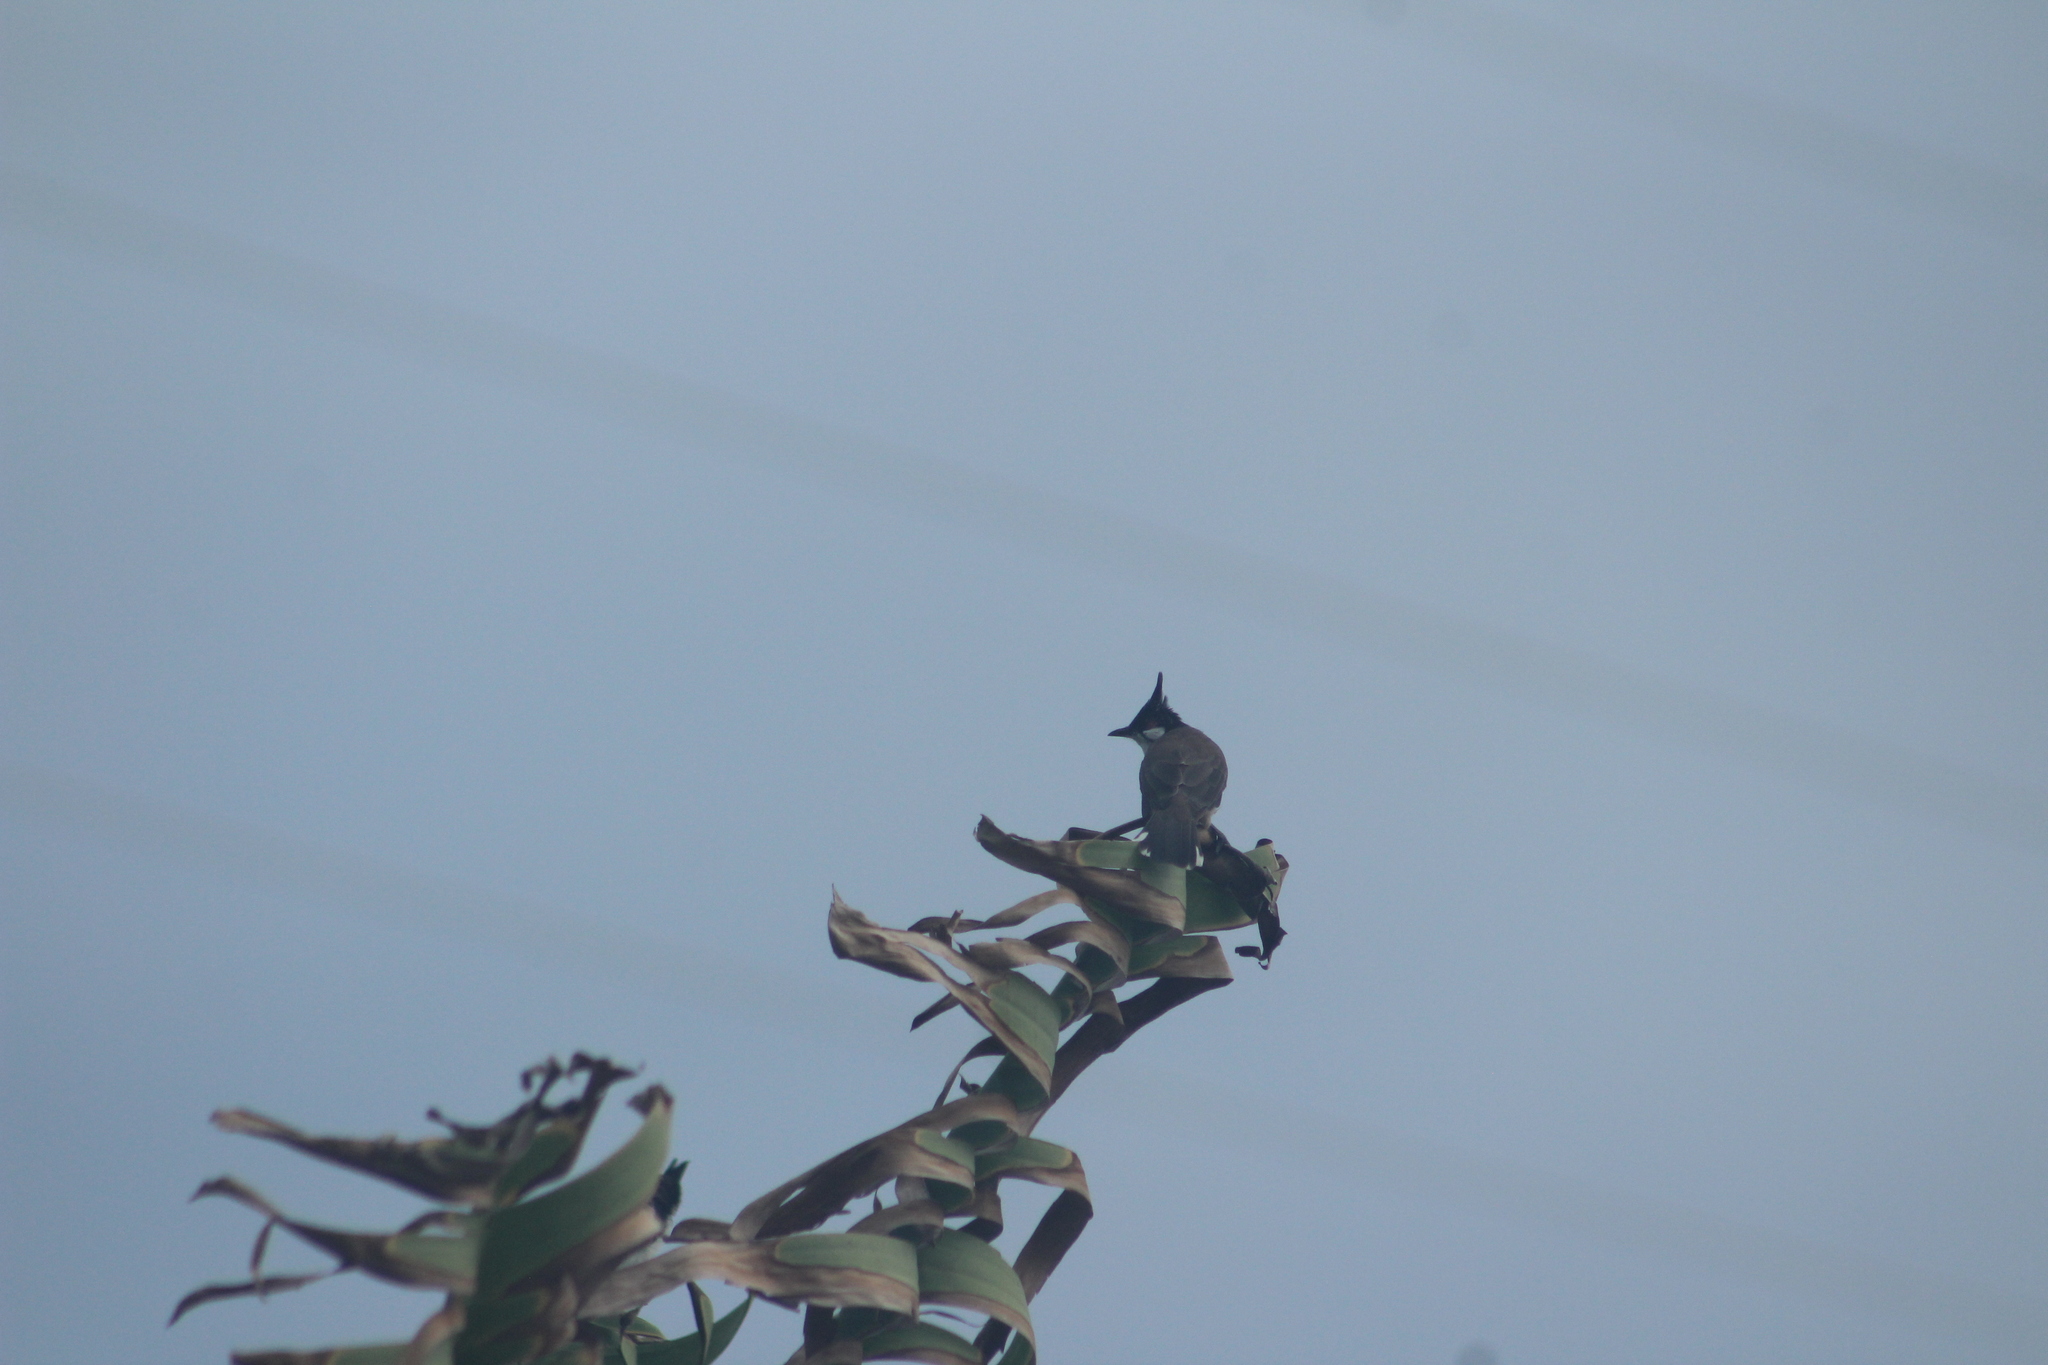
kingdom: Animalia
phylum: Chordata
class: Aves
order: Passeriformes
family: Pycnonotidae
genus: Pycnonotus
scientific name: Pycnonotus jocosus
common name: Red-whiskered bulbul
